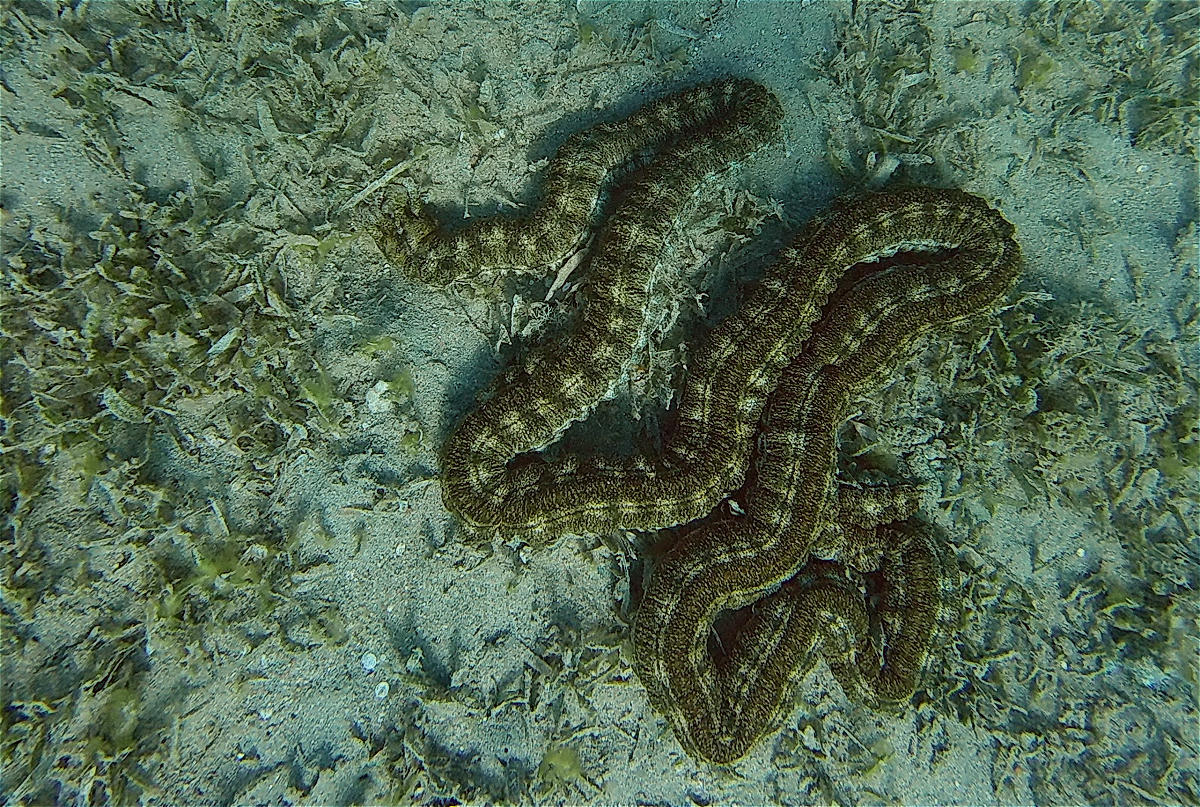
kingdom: Animalia
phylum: Echinodermata
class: Holothuroidea
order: Apodida
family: Synaptidae
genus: Synapta
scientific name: Synapta maculata
